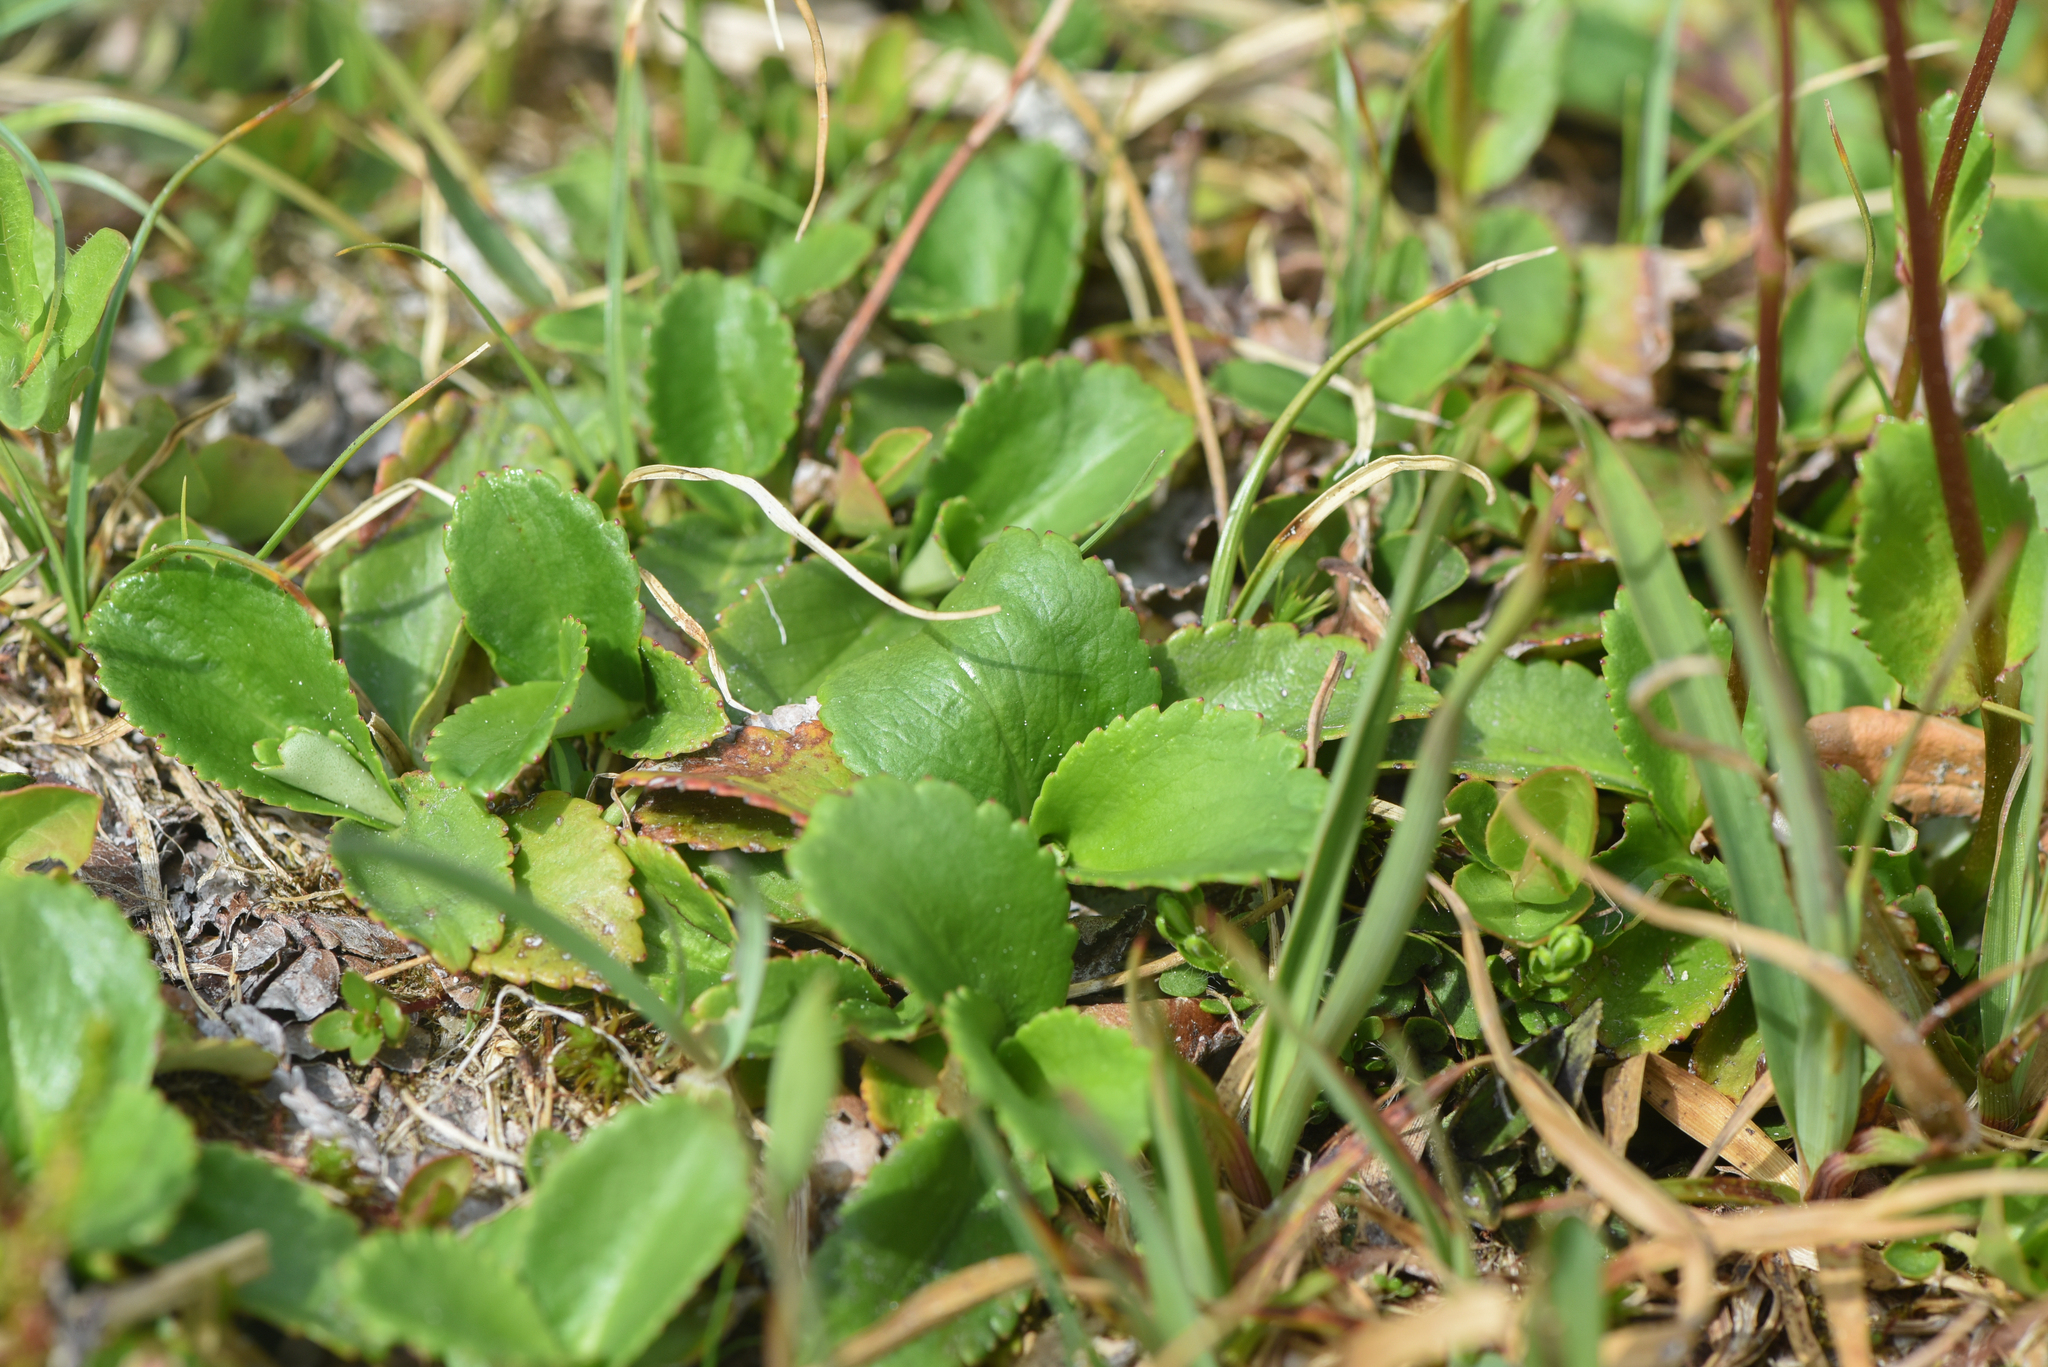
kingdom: Plantae
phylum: Tracheophyta
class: Magnoliopsida
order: Saxifragales
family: Saxifragaceae
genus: Leptarrhena
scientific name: Leptarrhena pyrolifolia
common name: Leatherleaf-saxifrage
